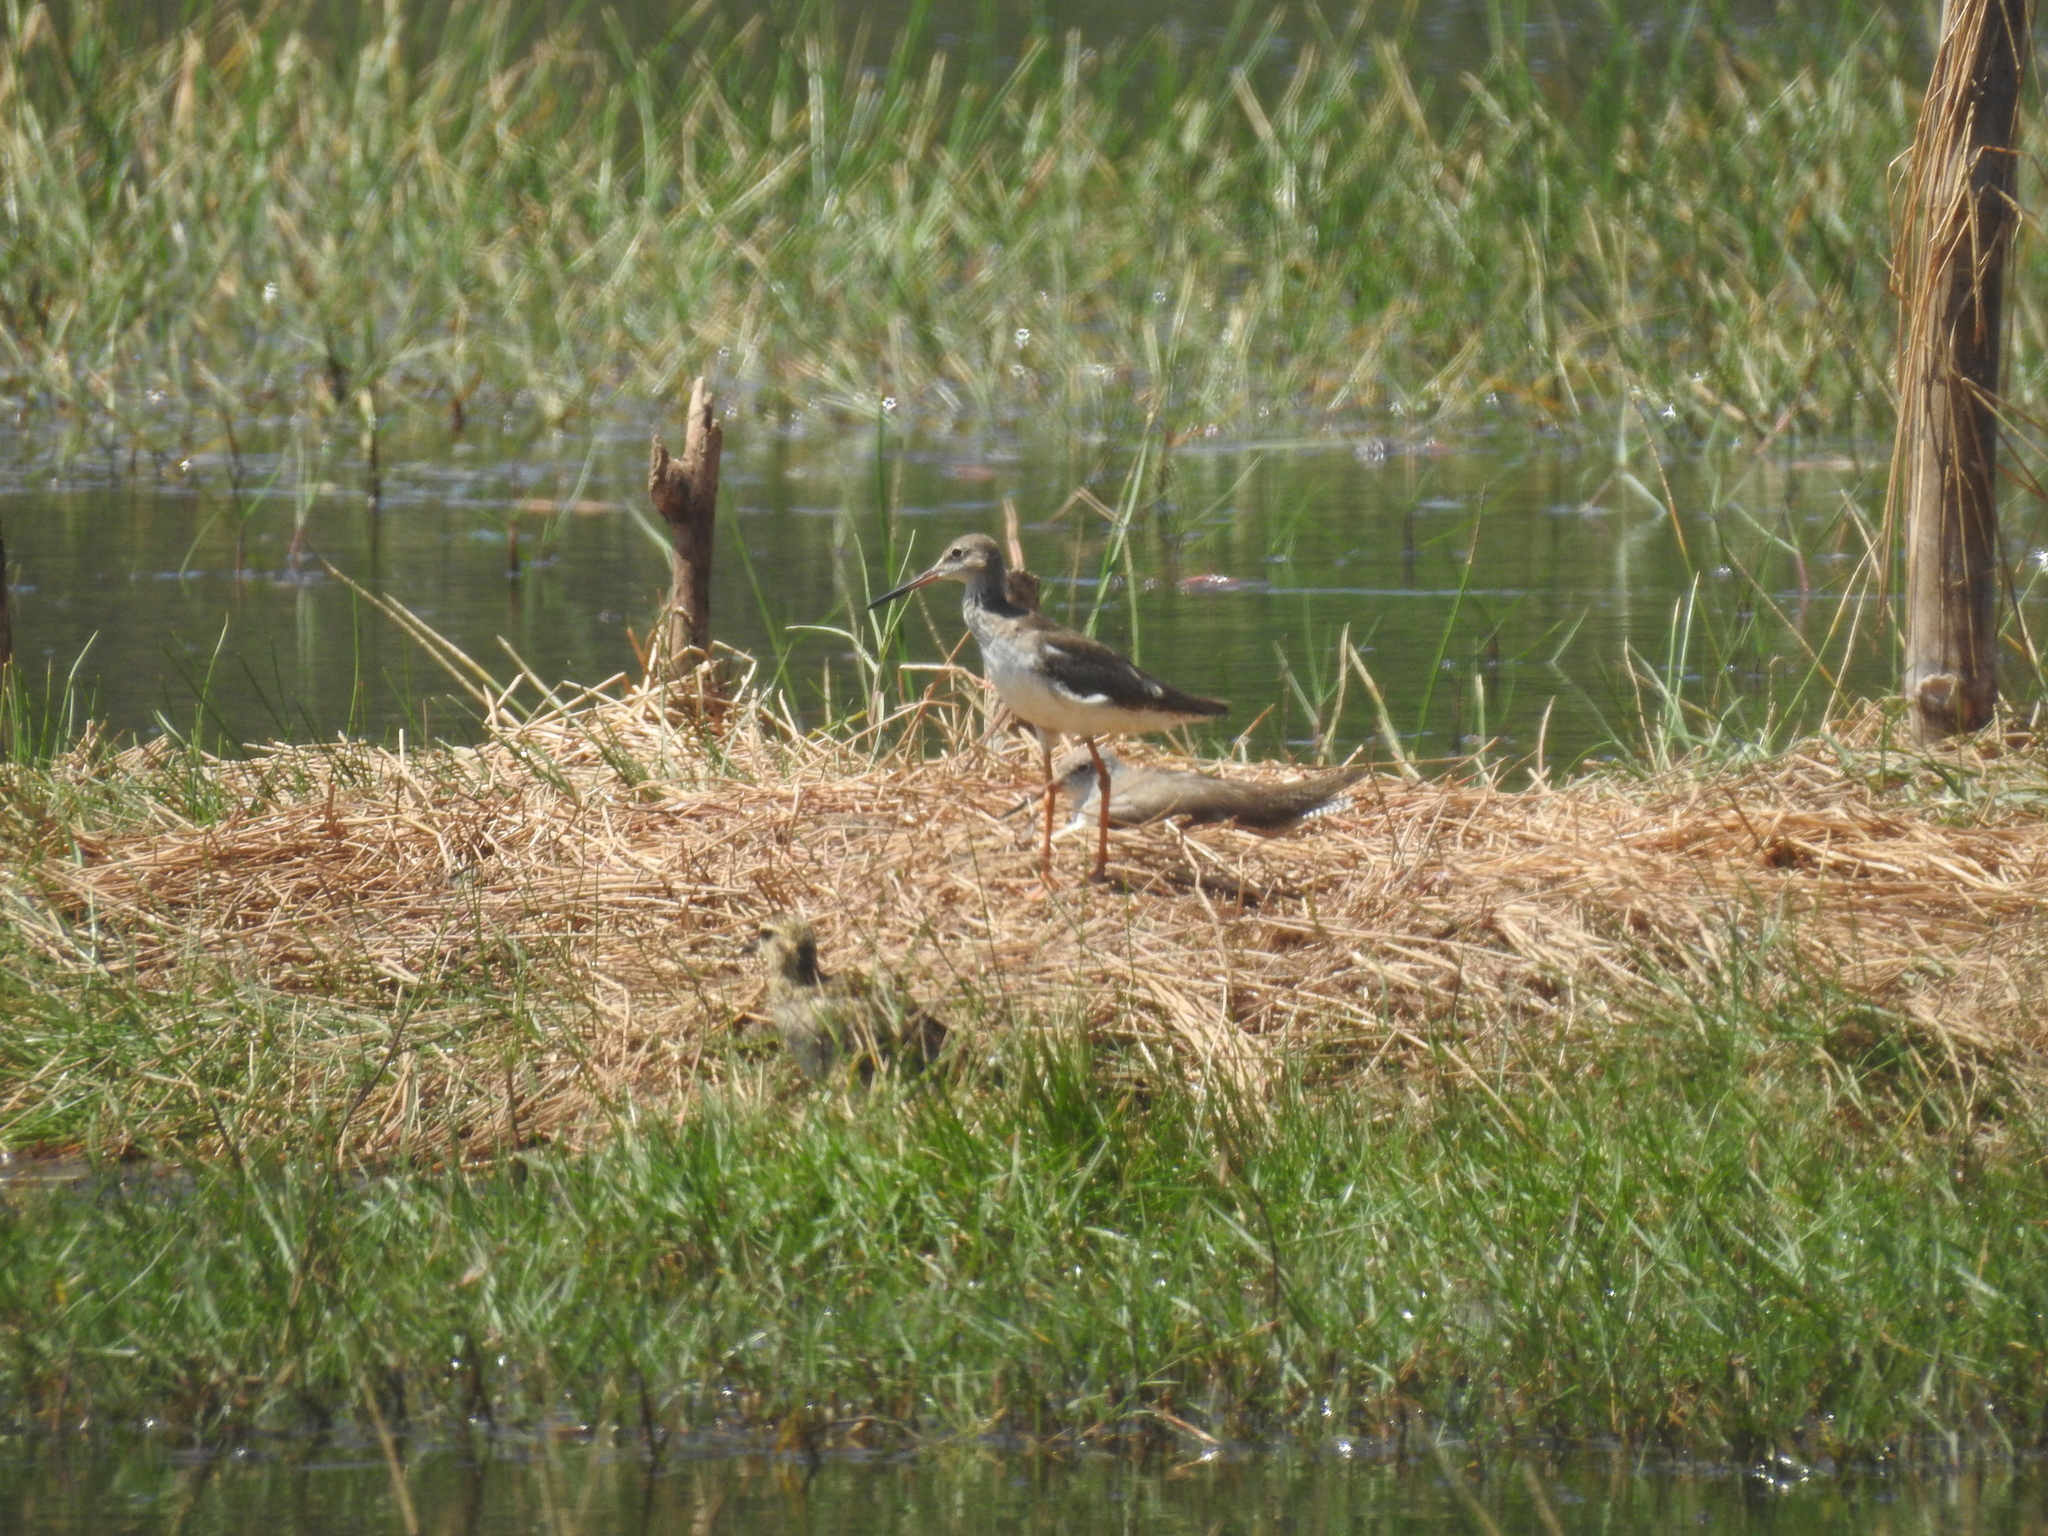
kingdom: Animalia
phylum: Chordata
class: Aves
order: Charadriiformes
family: Scolopacidae
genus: Tringa
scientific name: Tringa totanus
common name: Common redshank
